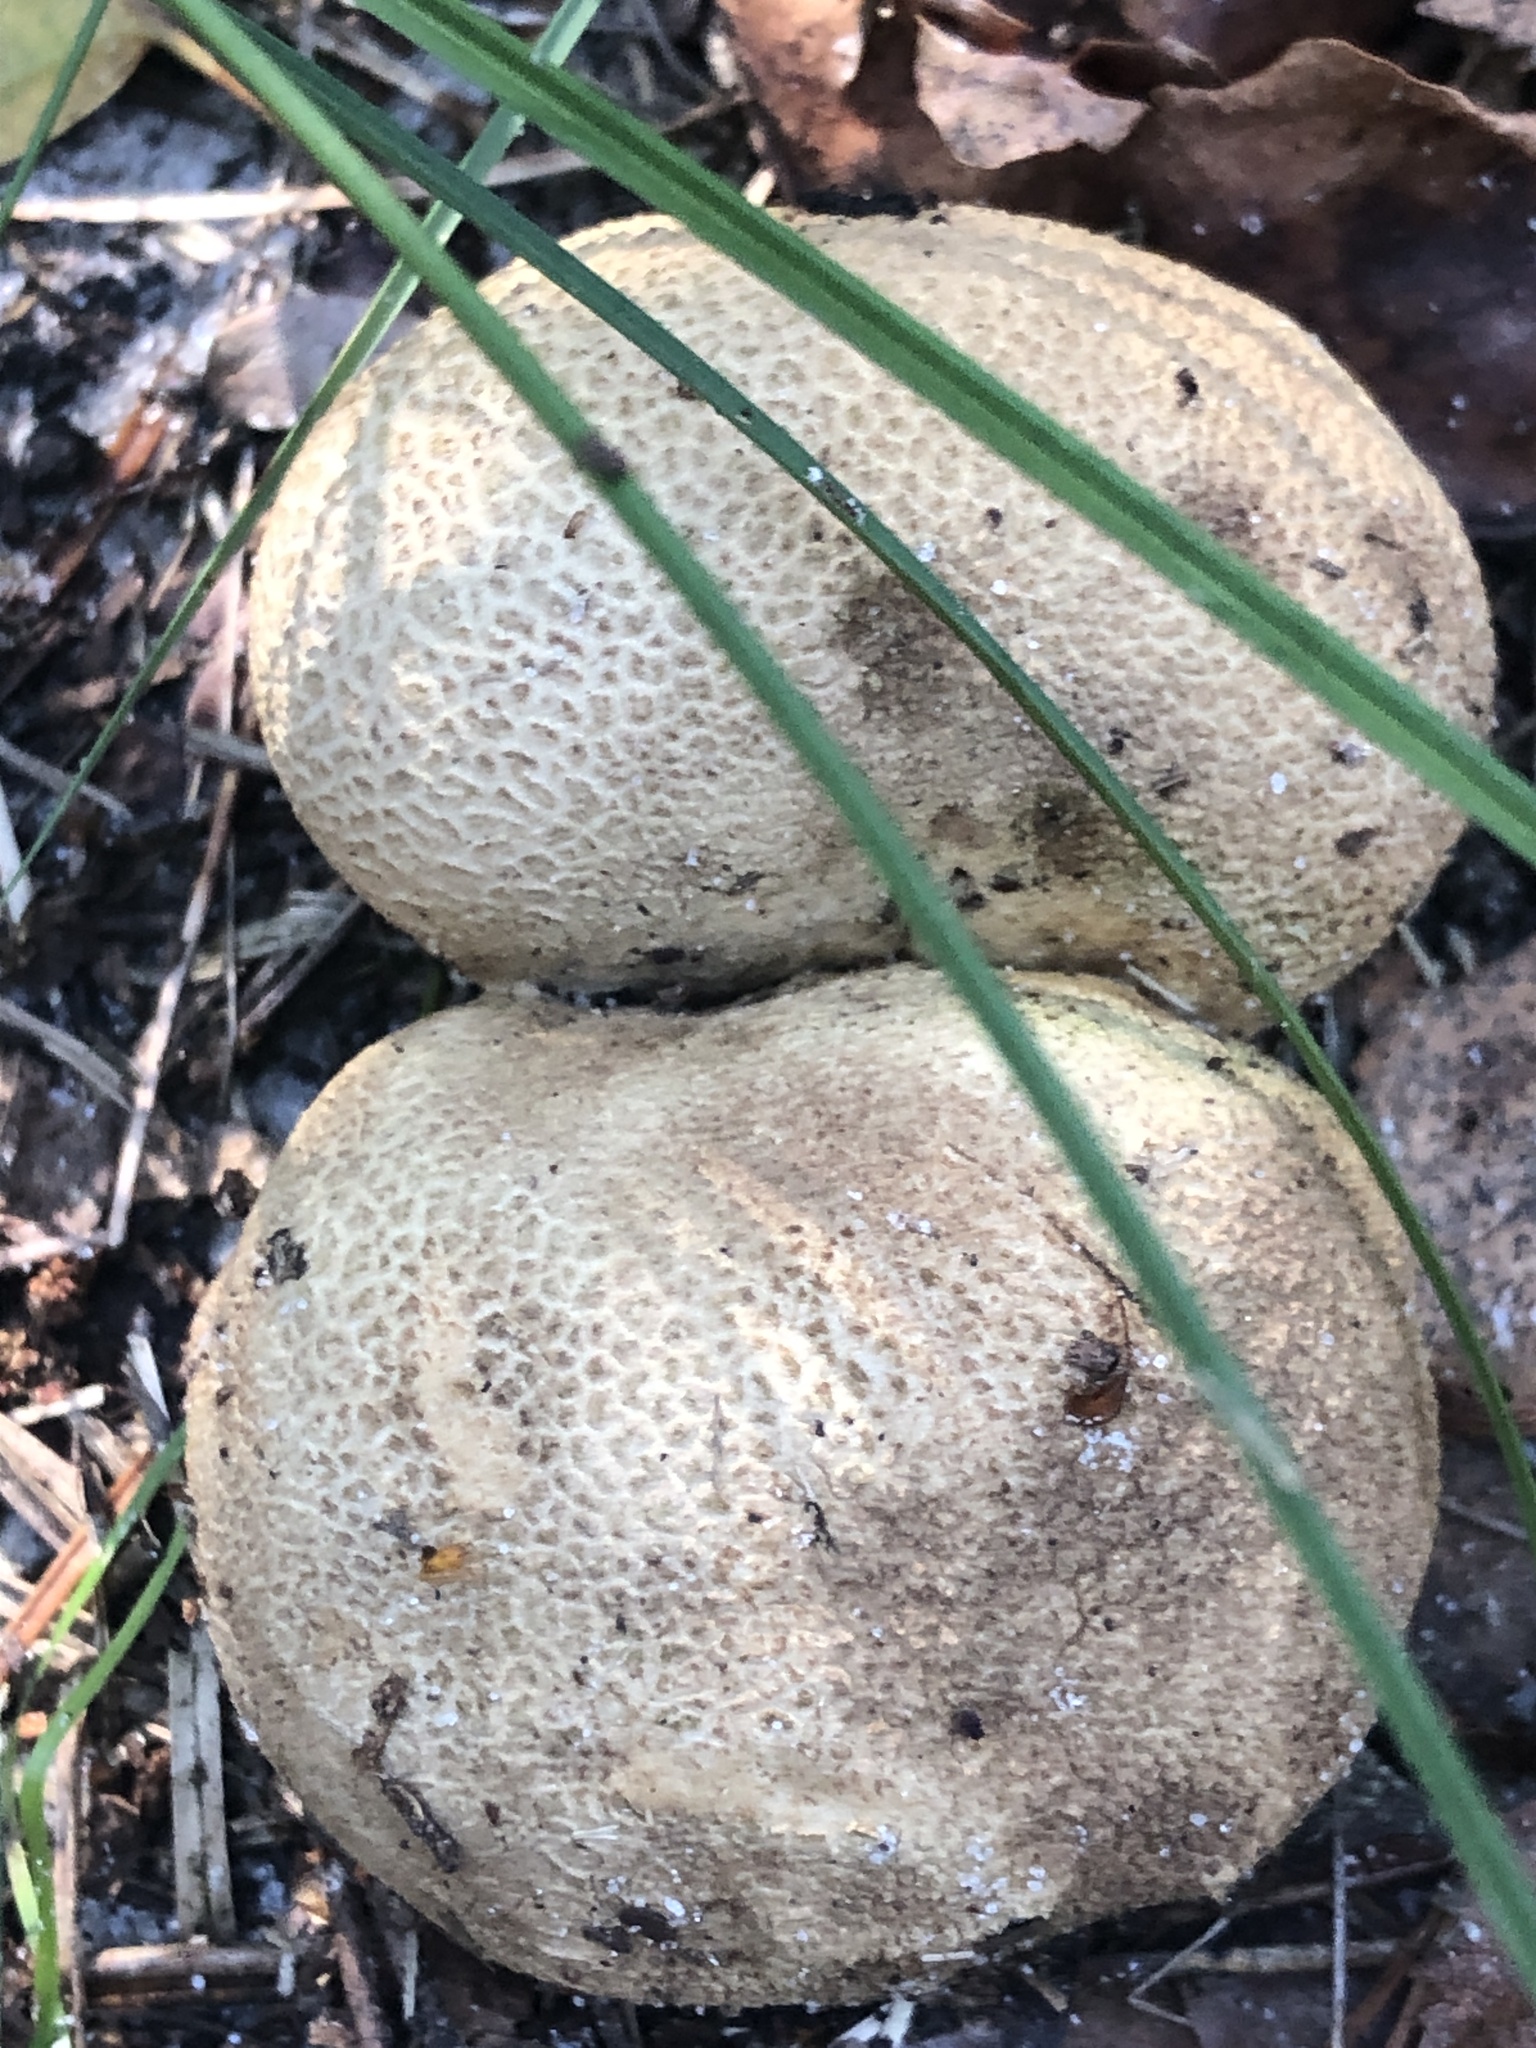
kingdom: Fungi
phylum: Basidiomycota
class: Agaricomycetes
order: Boletales
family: Sclerodermataceae
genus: Scleroderma
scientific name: Scleroderma citrinum
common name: Common earthball
